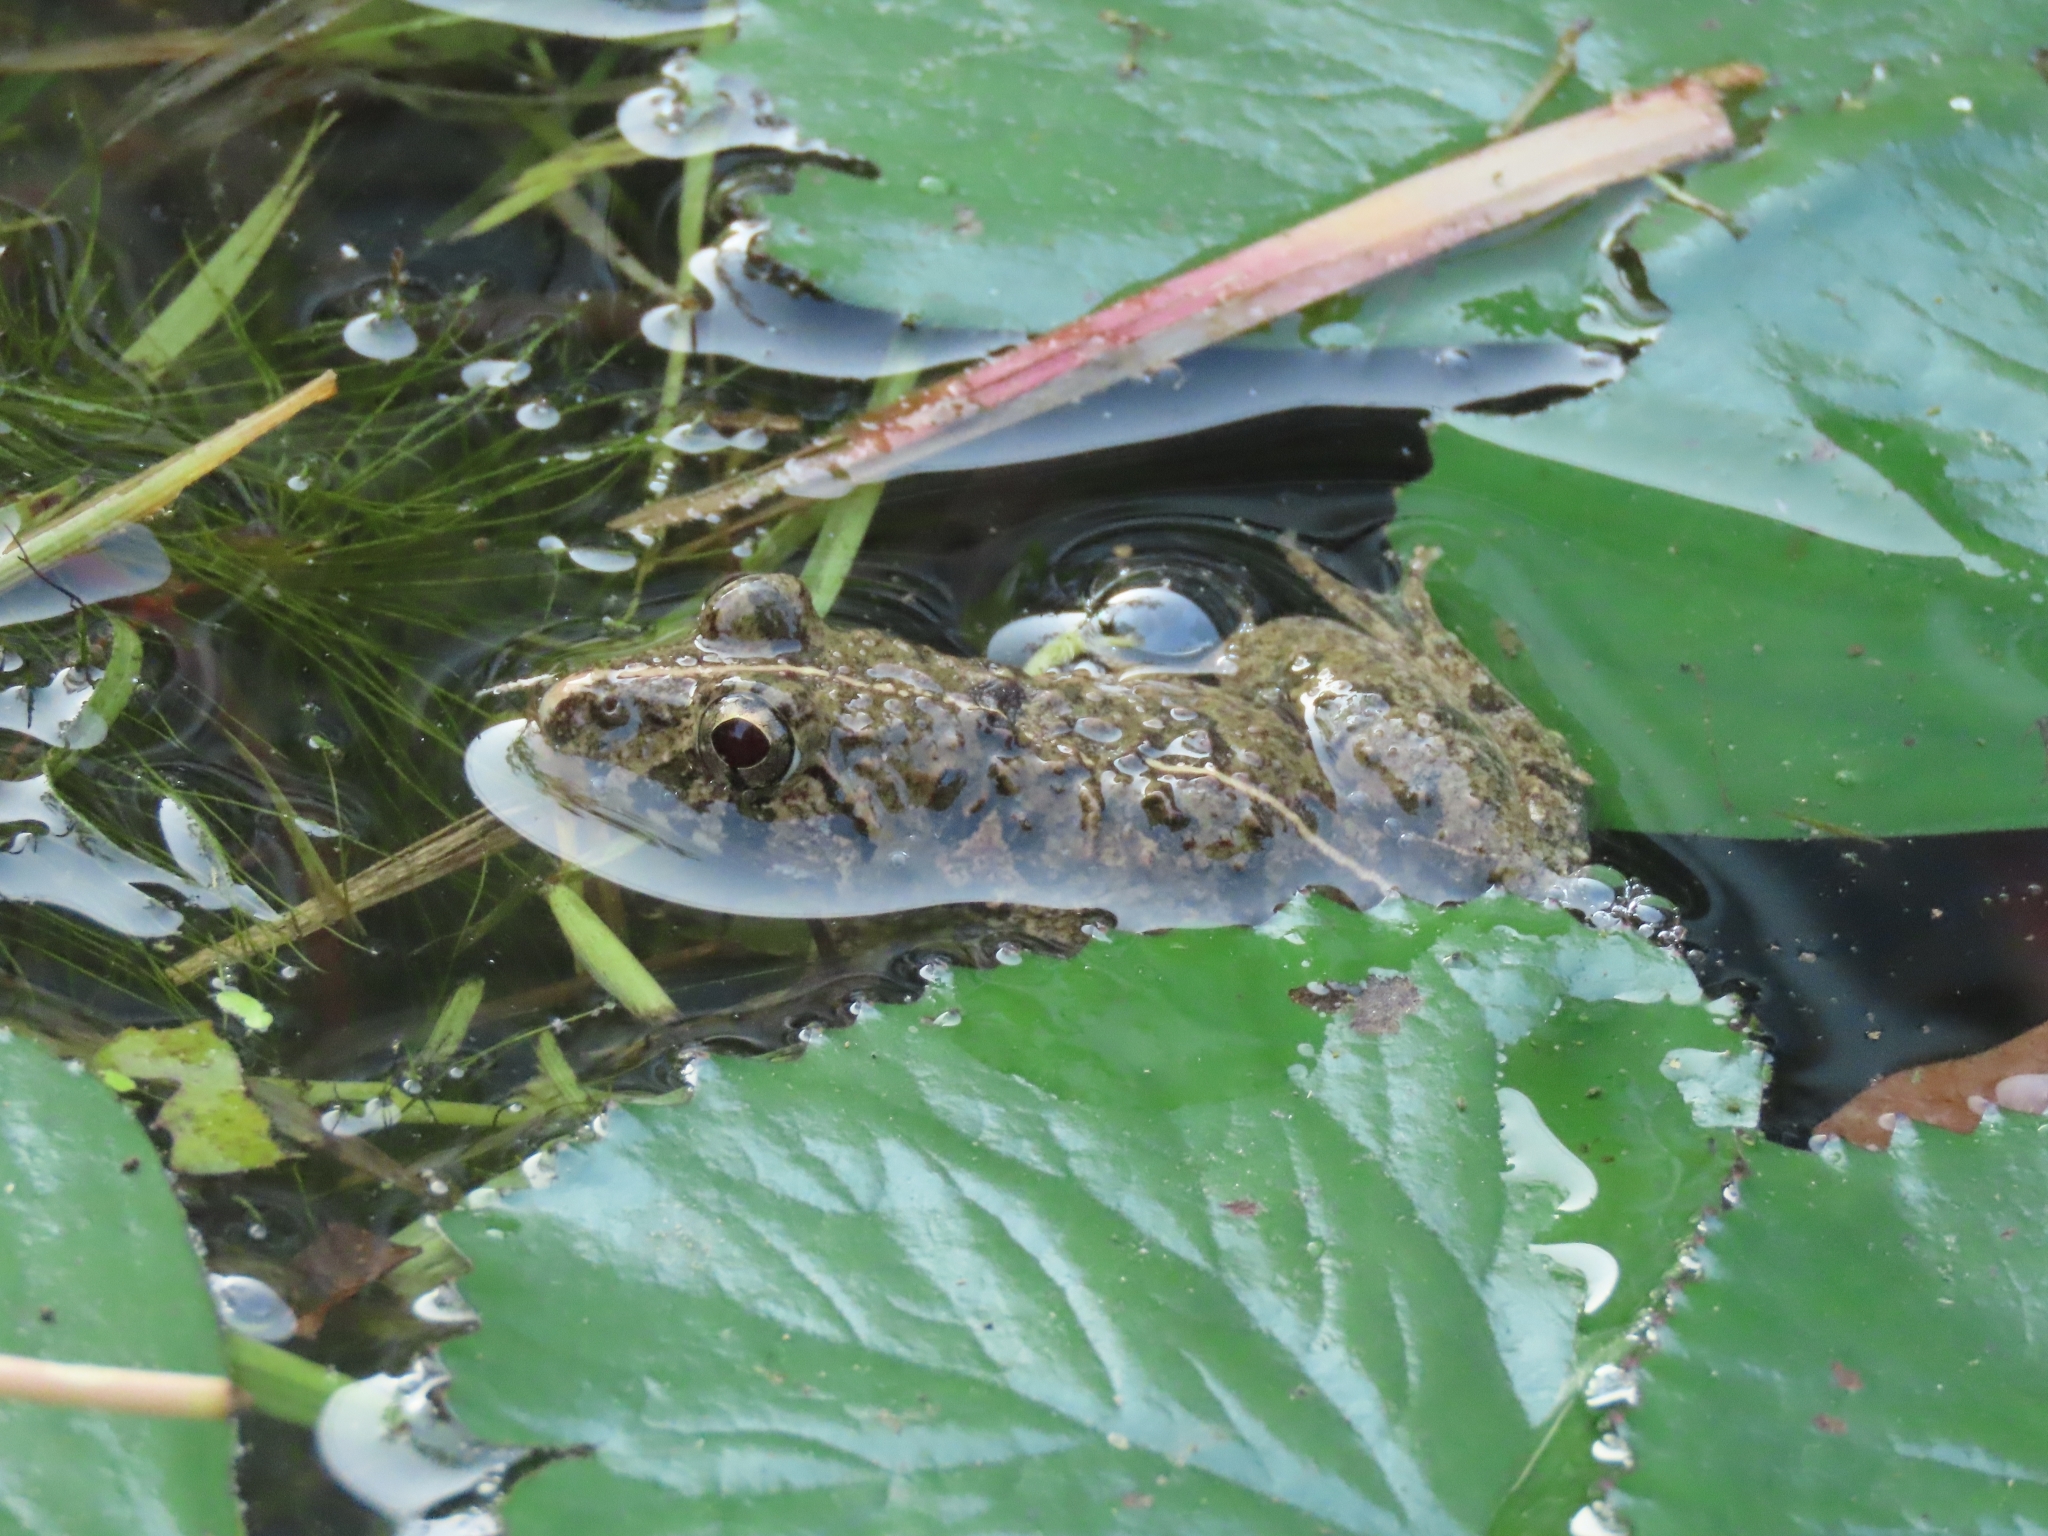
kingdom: Animalia
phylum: Chordata
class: Amphibia
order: Anura
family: Dicroglossidae
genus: Fejervarya
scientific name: Fejervarya limnocharis
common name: Asian grass frog/common pond frog/field frog/grass frog/indian rice frog
